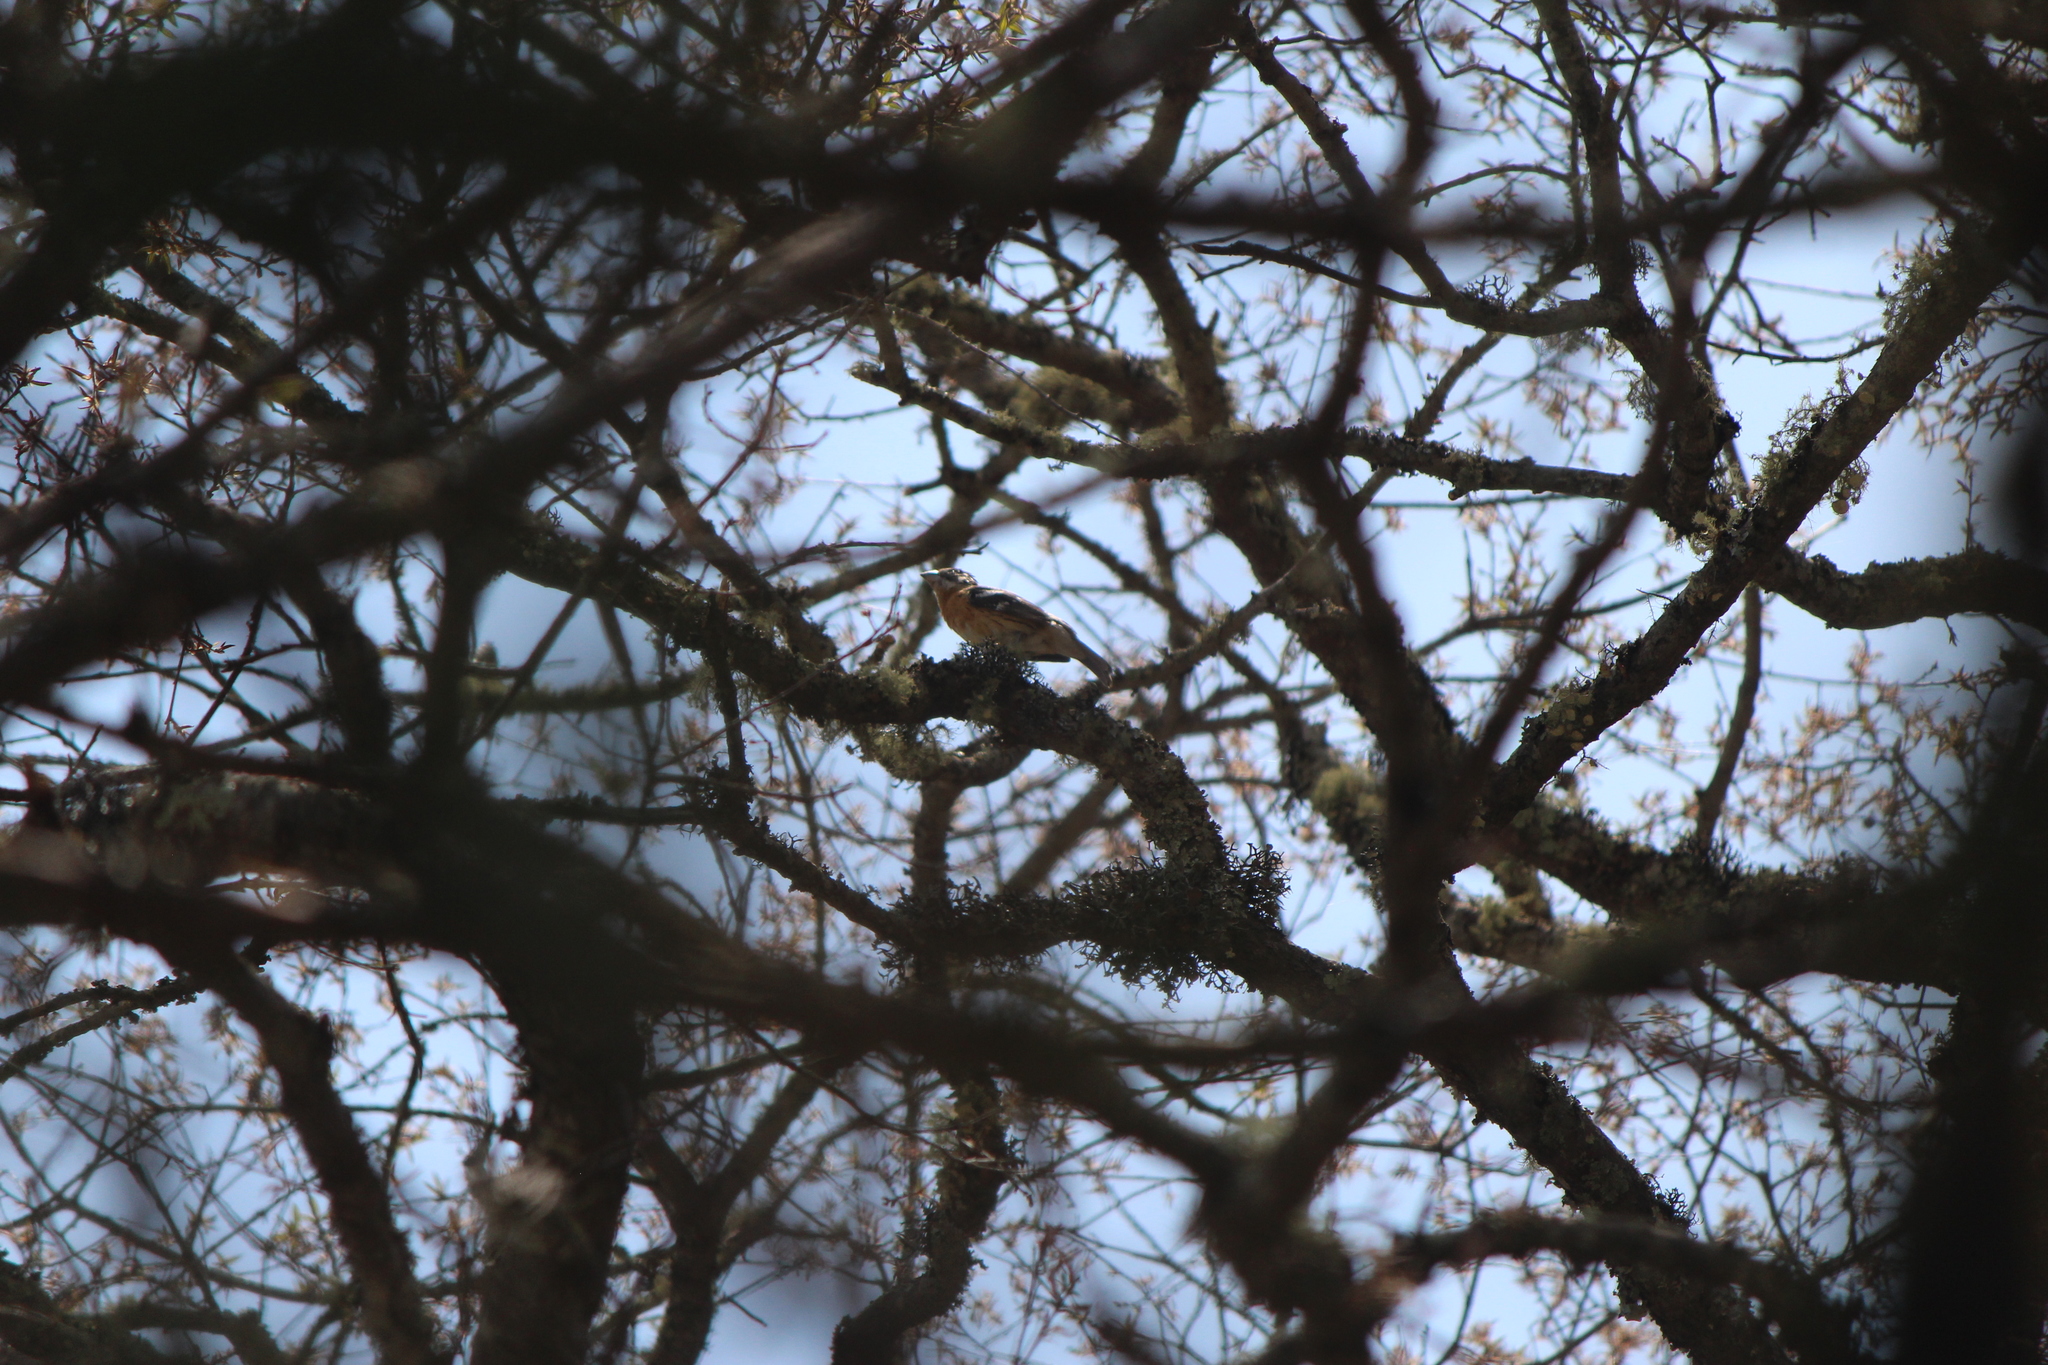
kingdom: Animalia
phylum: Chordata
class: Aves
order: Passeriformes
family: Cardinalidae
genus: Pheucticus
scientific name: Pheucticus melanocephalus
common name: Black-headed grosbeak
